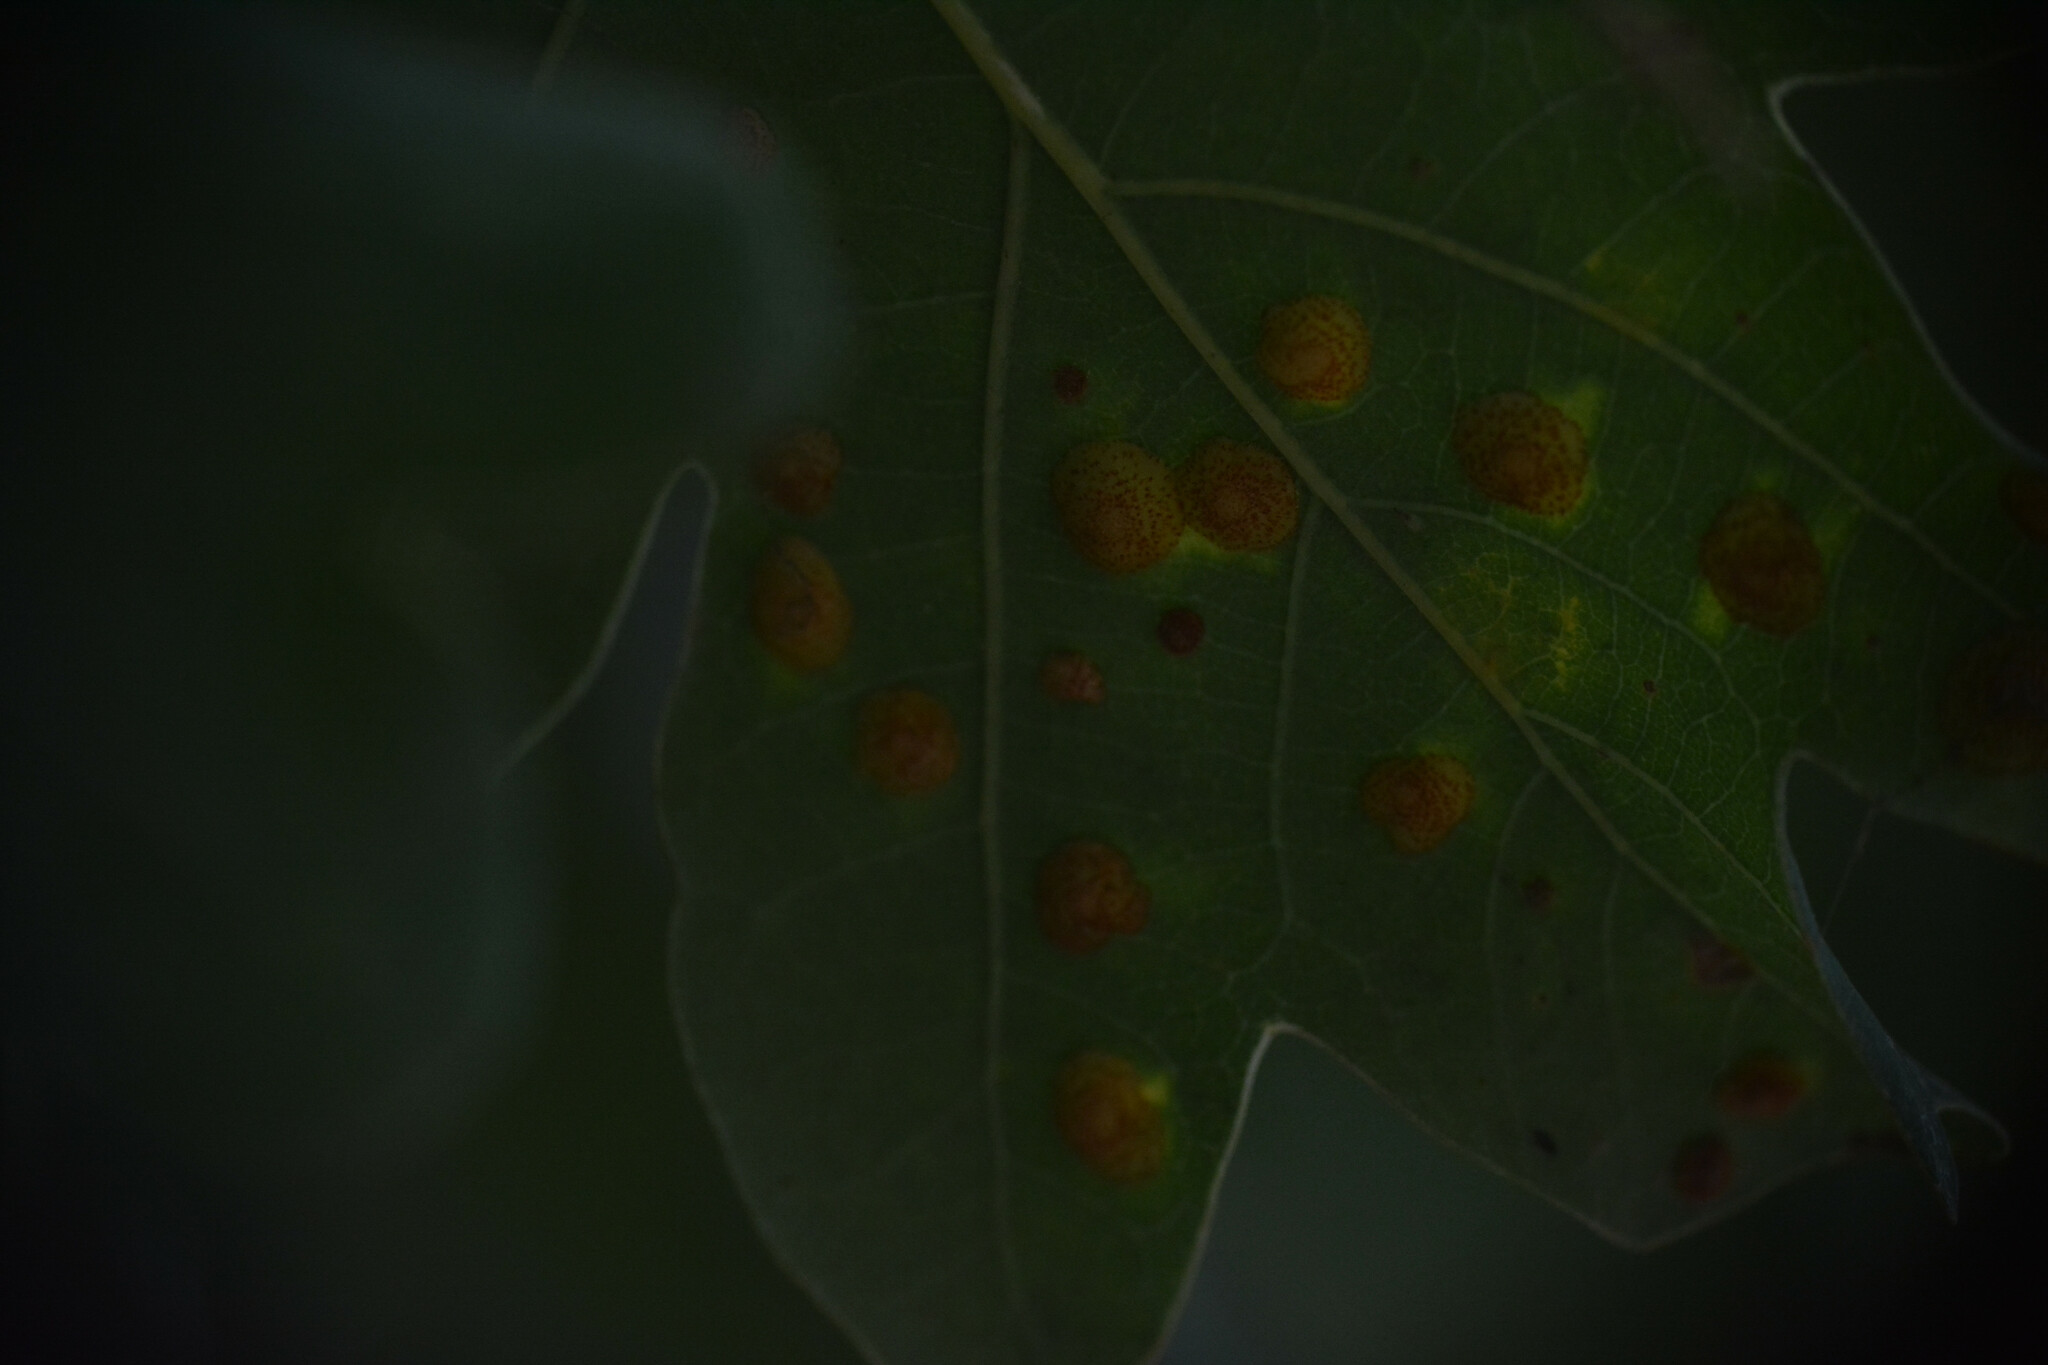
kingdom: Animalia
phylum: Arthropoda
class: Insecta
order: Hymenoptera
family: Cynipidae
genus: Neuroterus
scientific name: Neuroterus quercusbaccarum
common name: Common spangle gall
